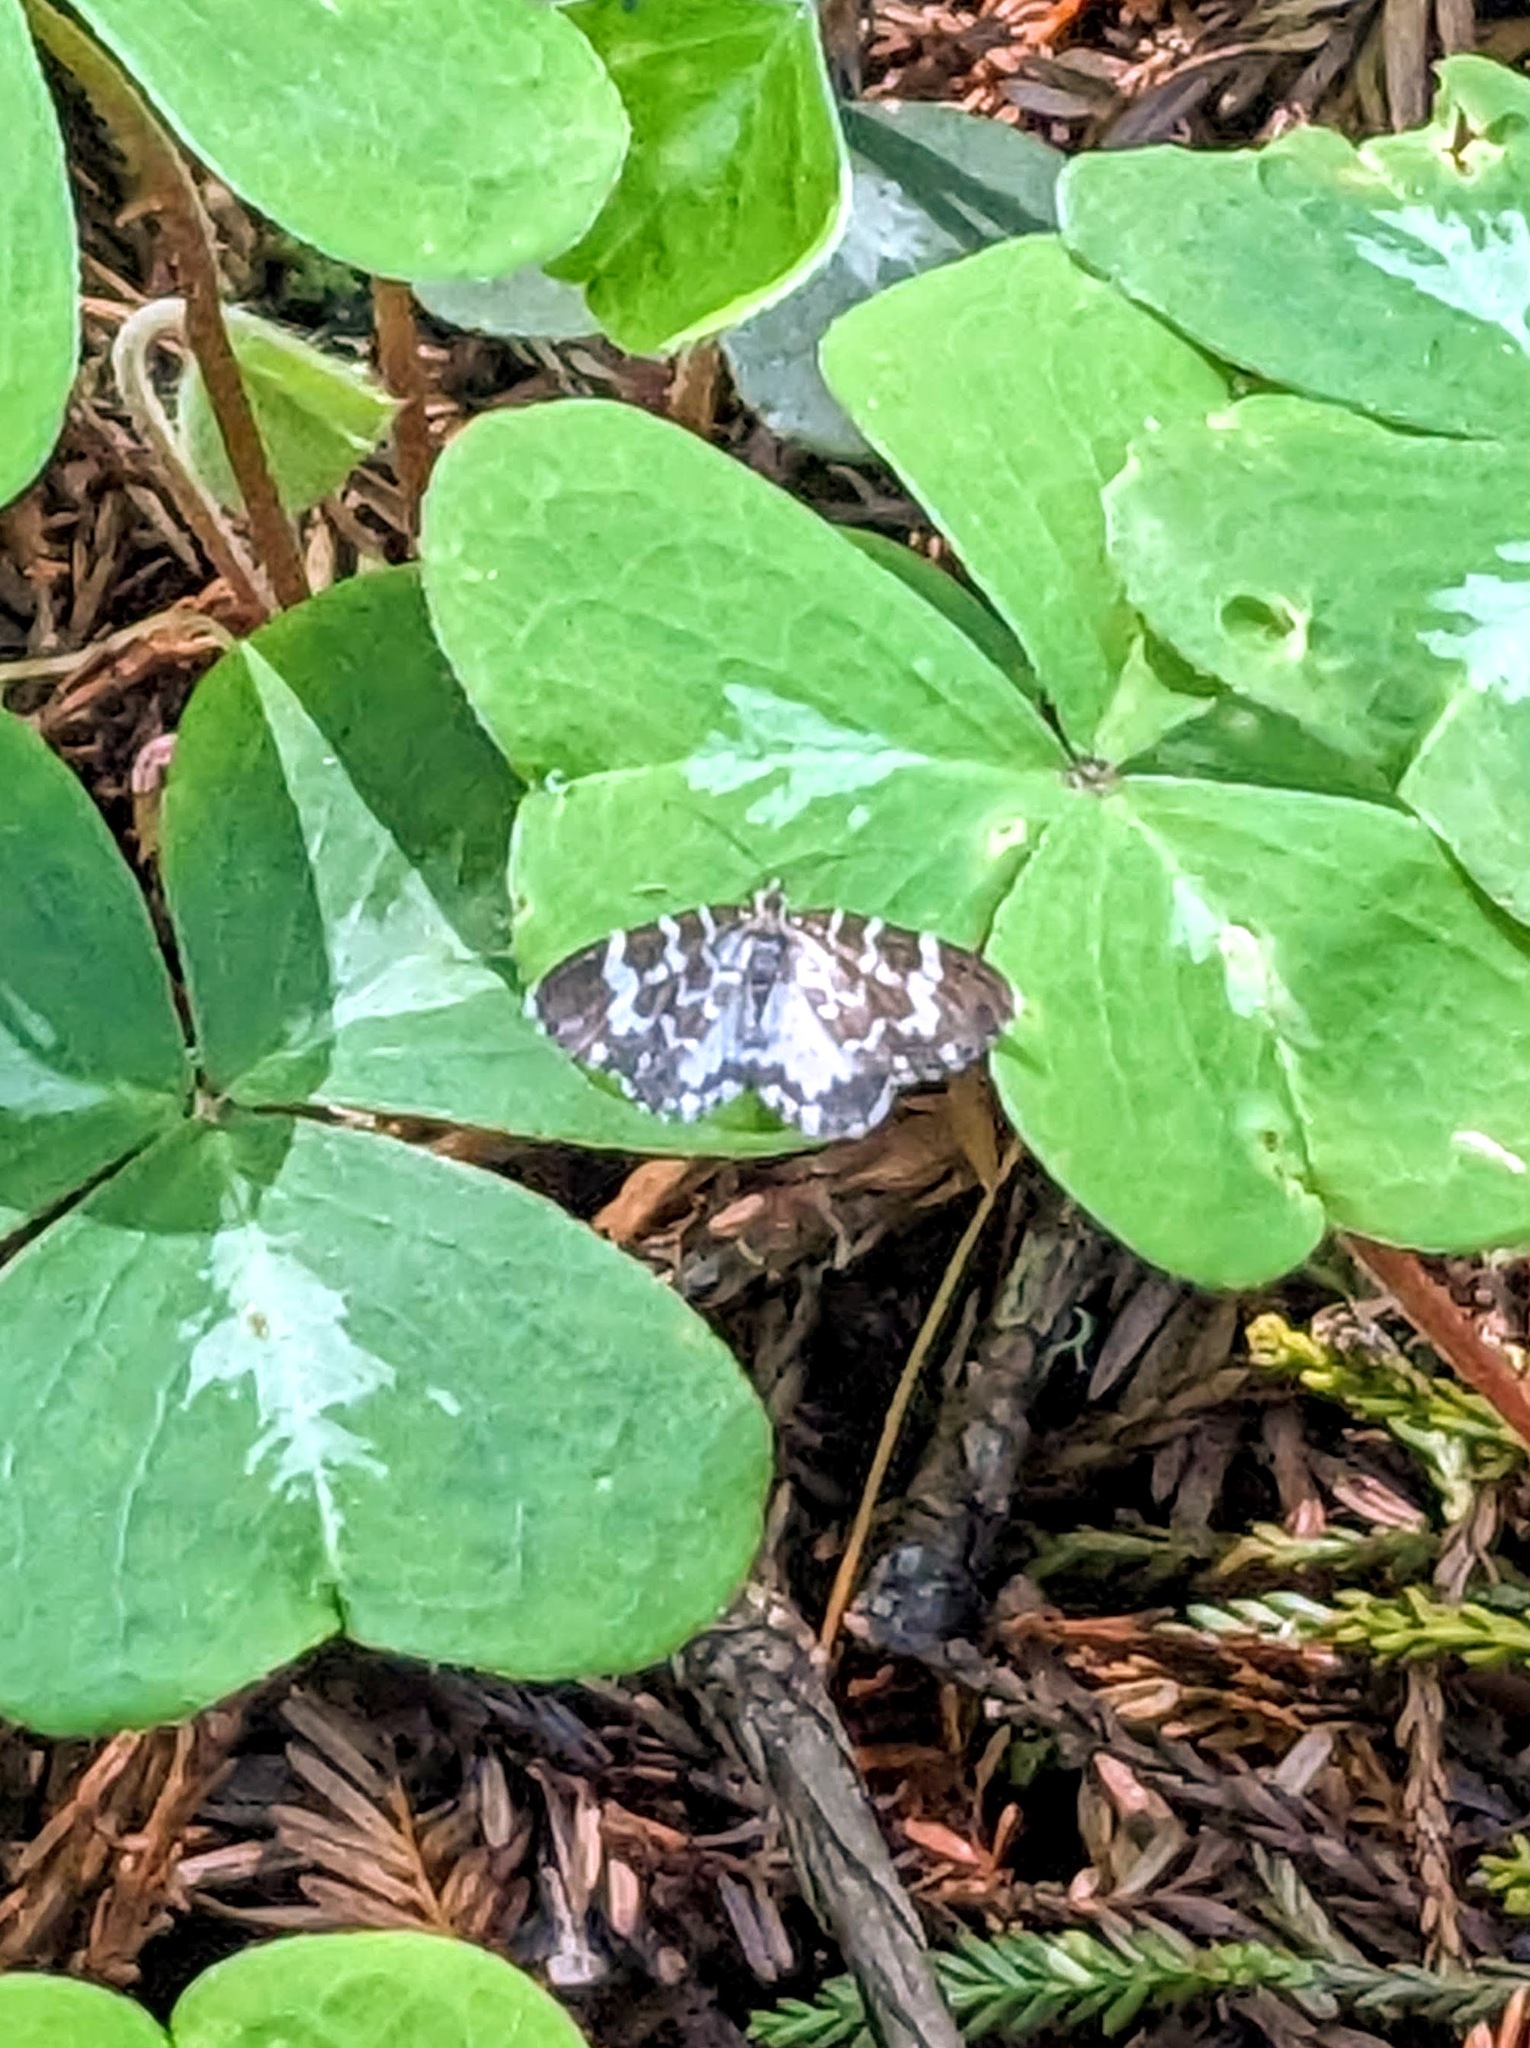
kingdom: Animalia
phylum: Arthropoda
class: Insecta
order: Lepidoptera
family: Geometridae
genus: Trichodezia
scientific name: Trichodezia californiata
